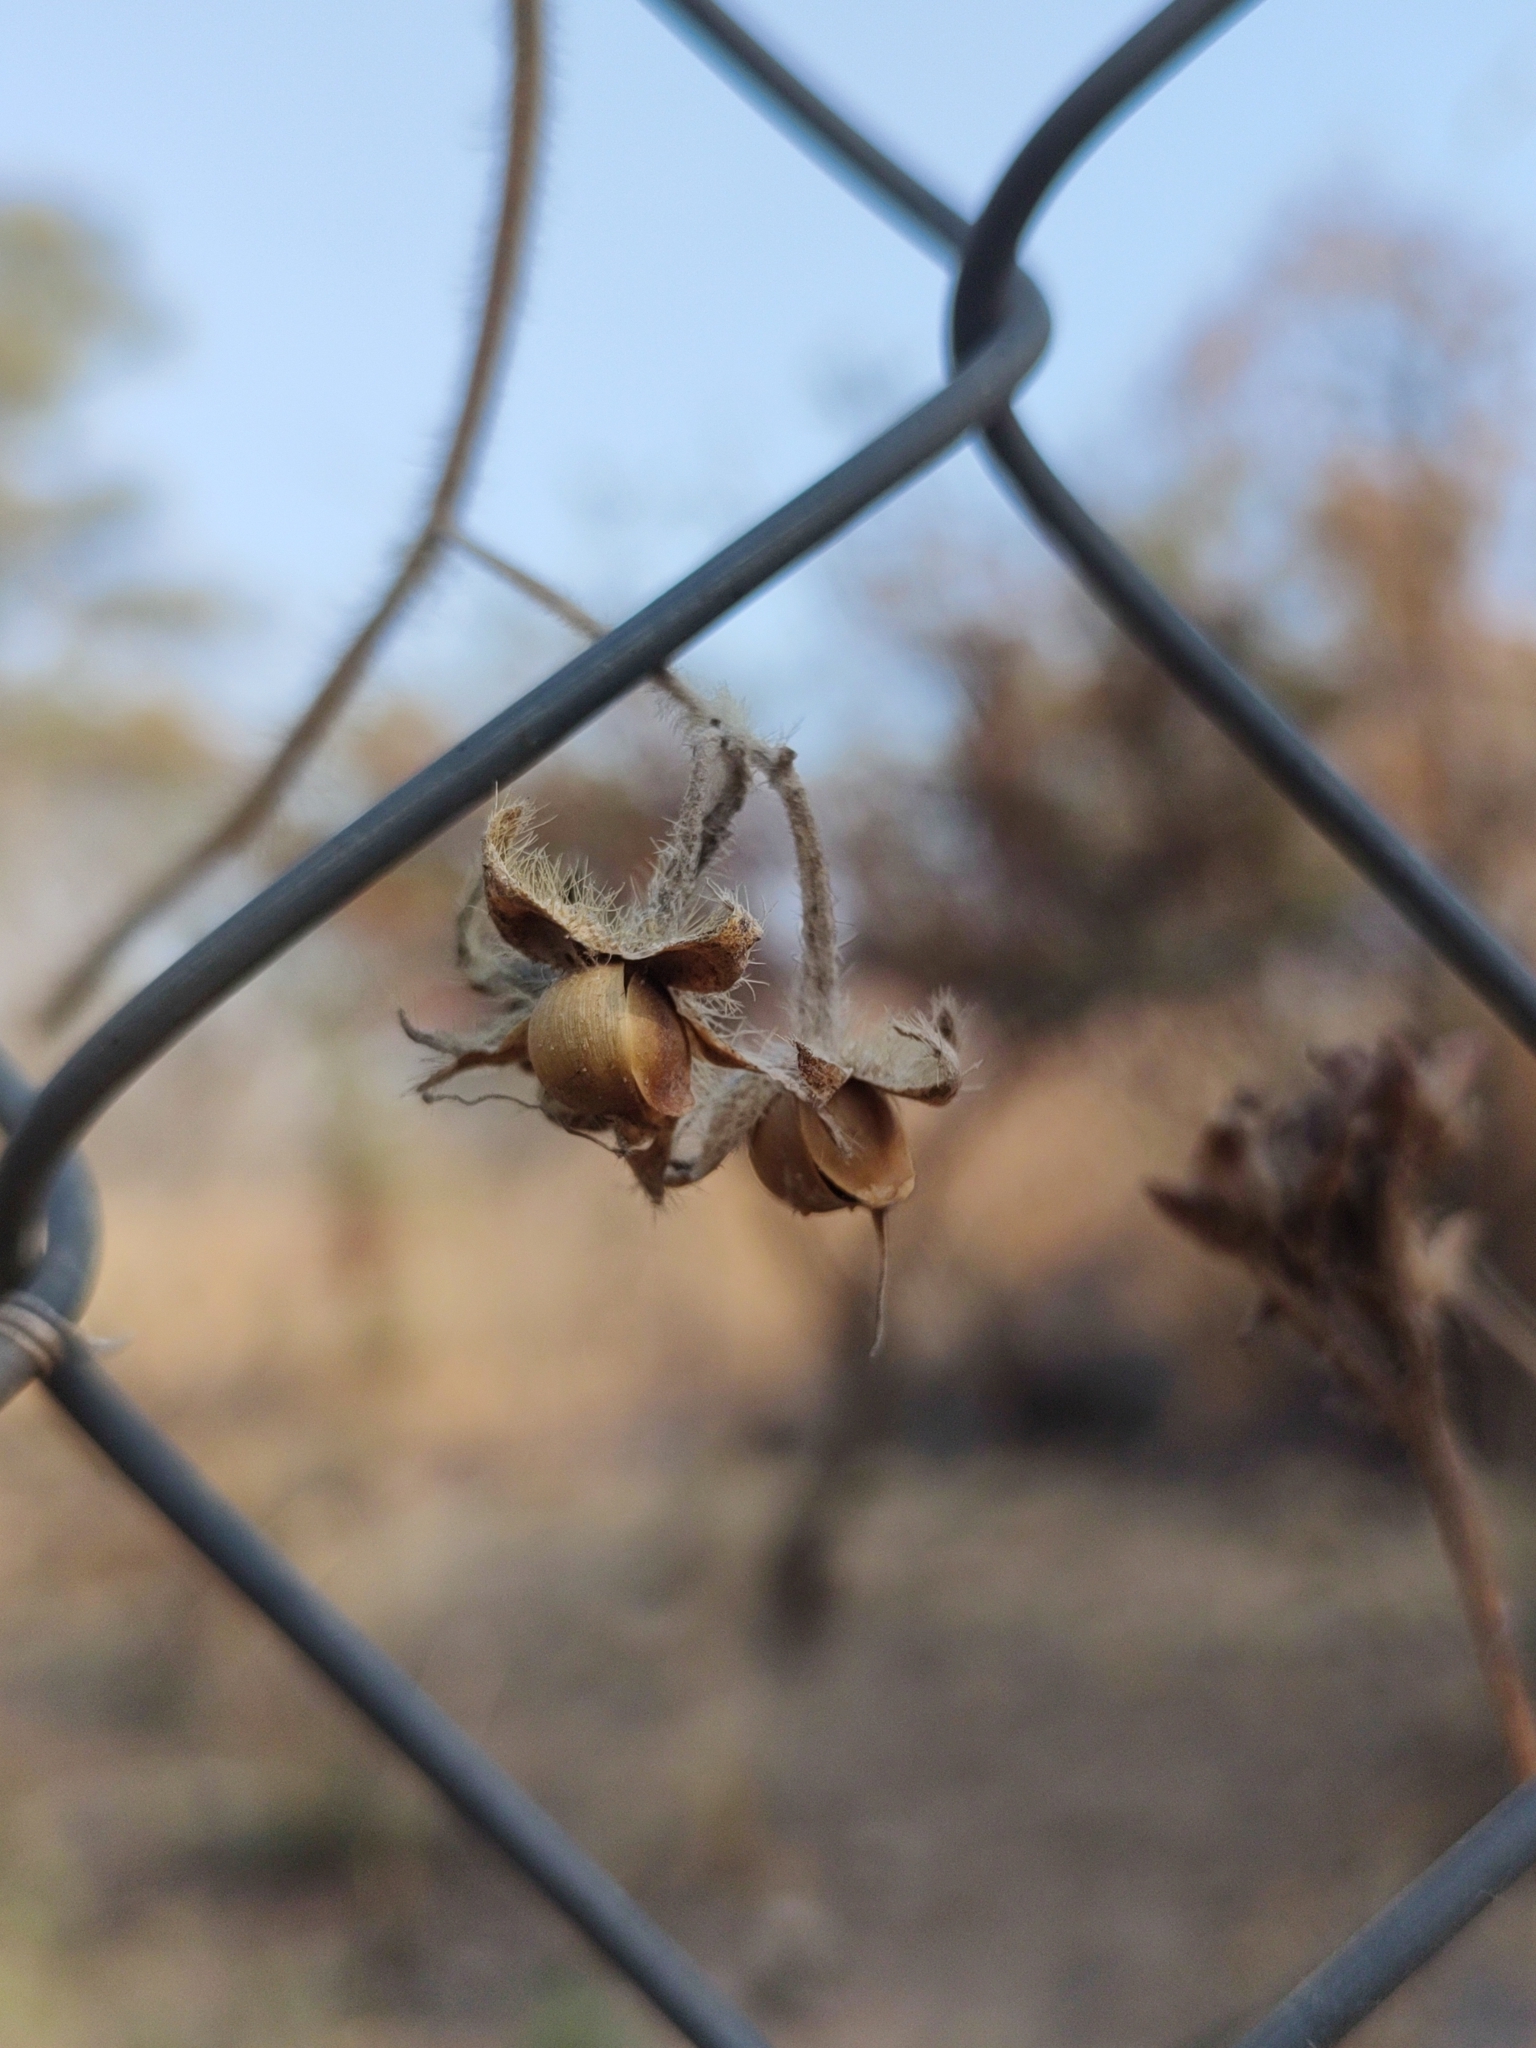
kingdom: Plantae
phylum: Tracheophyta
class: Magnoliopsida
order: Solanales
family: Convolvulaceae
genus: Distimake
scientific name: Distimake aegyptius
